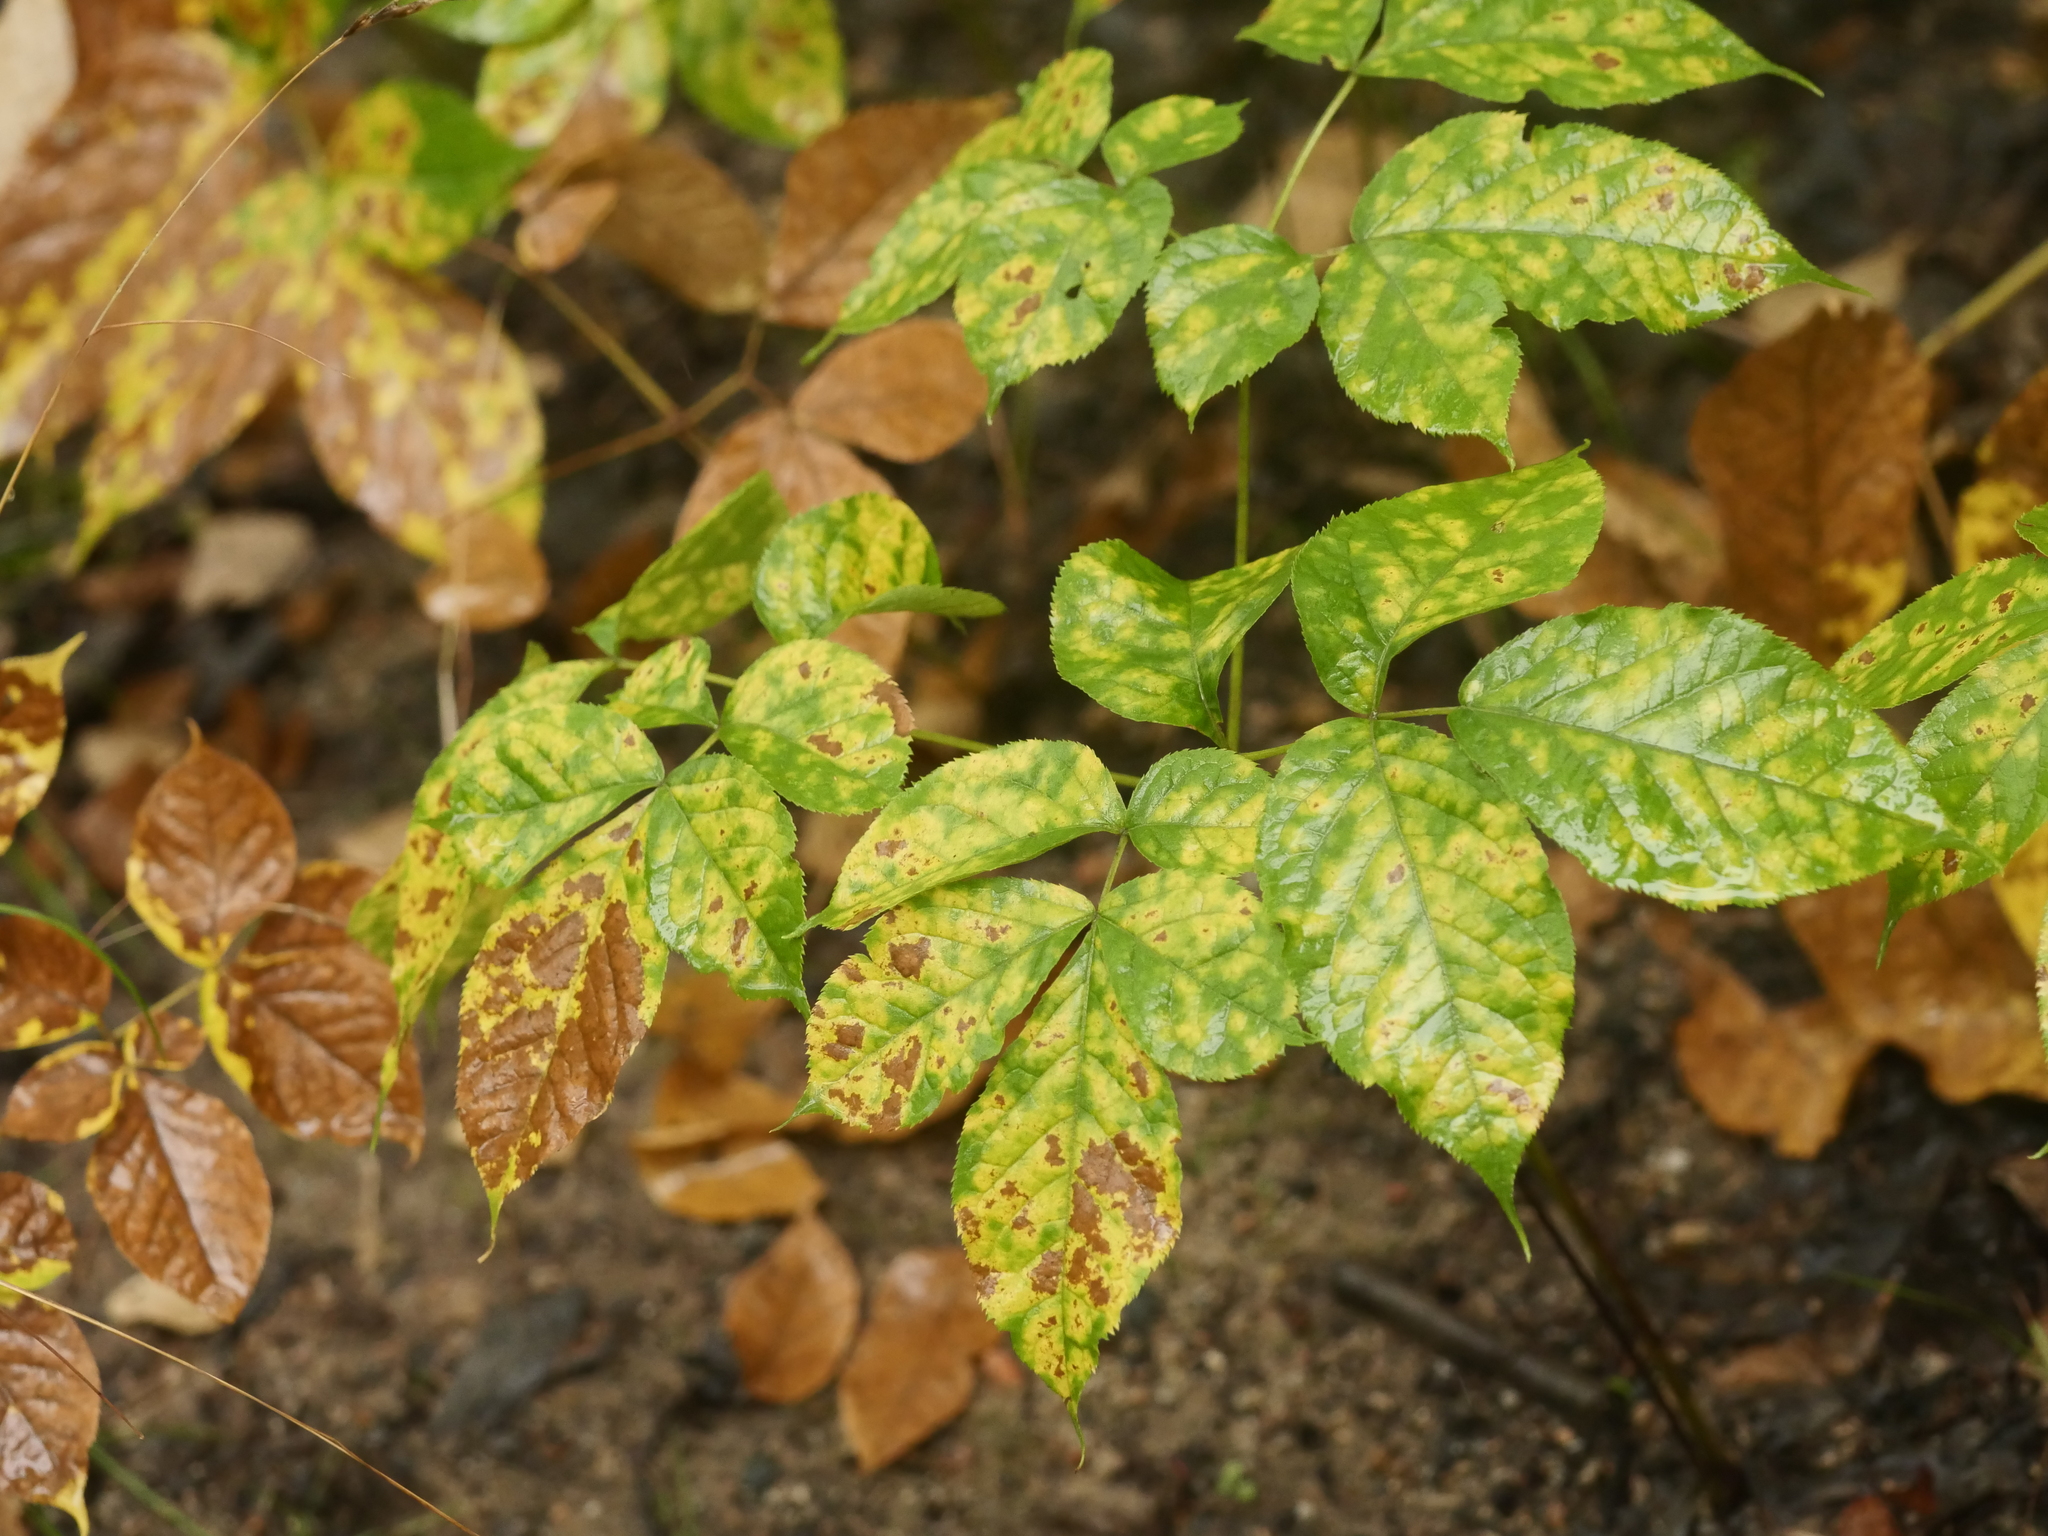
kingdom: Plantae
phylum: Tracheophyta
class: Magnoliopsida
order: Apiales
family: Araliaceae
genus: Aralia
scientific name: Aralia nudicaulis
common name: Wild sarsaparilla
